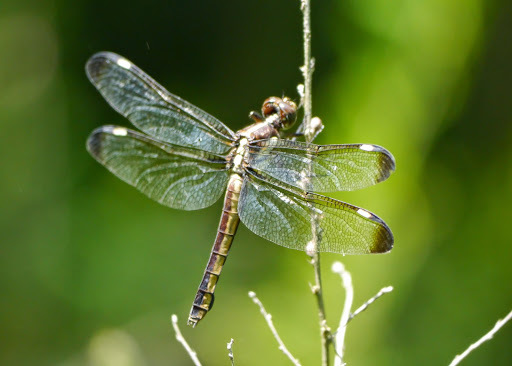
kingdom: Animalia
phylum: Arthropoda
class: Insecta
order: Odonata
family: Libellulidae
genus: Libellula
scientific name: Libellula cyanea
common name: Spangled skimmer
